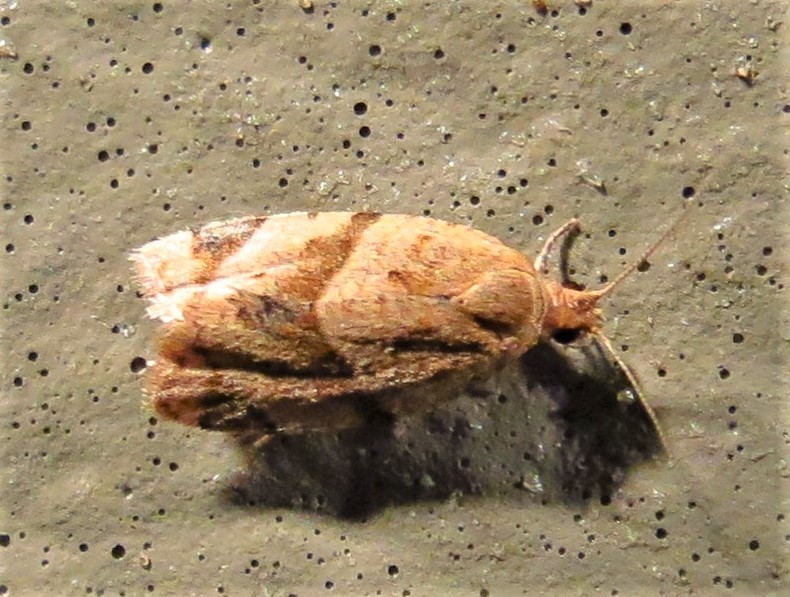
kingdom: Animalia
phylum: Arthropoda
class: Insecta
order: Lepidoptera
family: Tortricidae
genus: Clepsis
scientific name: Clepsis peritana
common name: Garden tortrix
